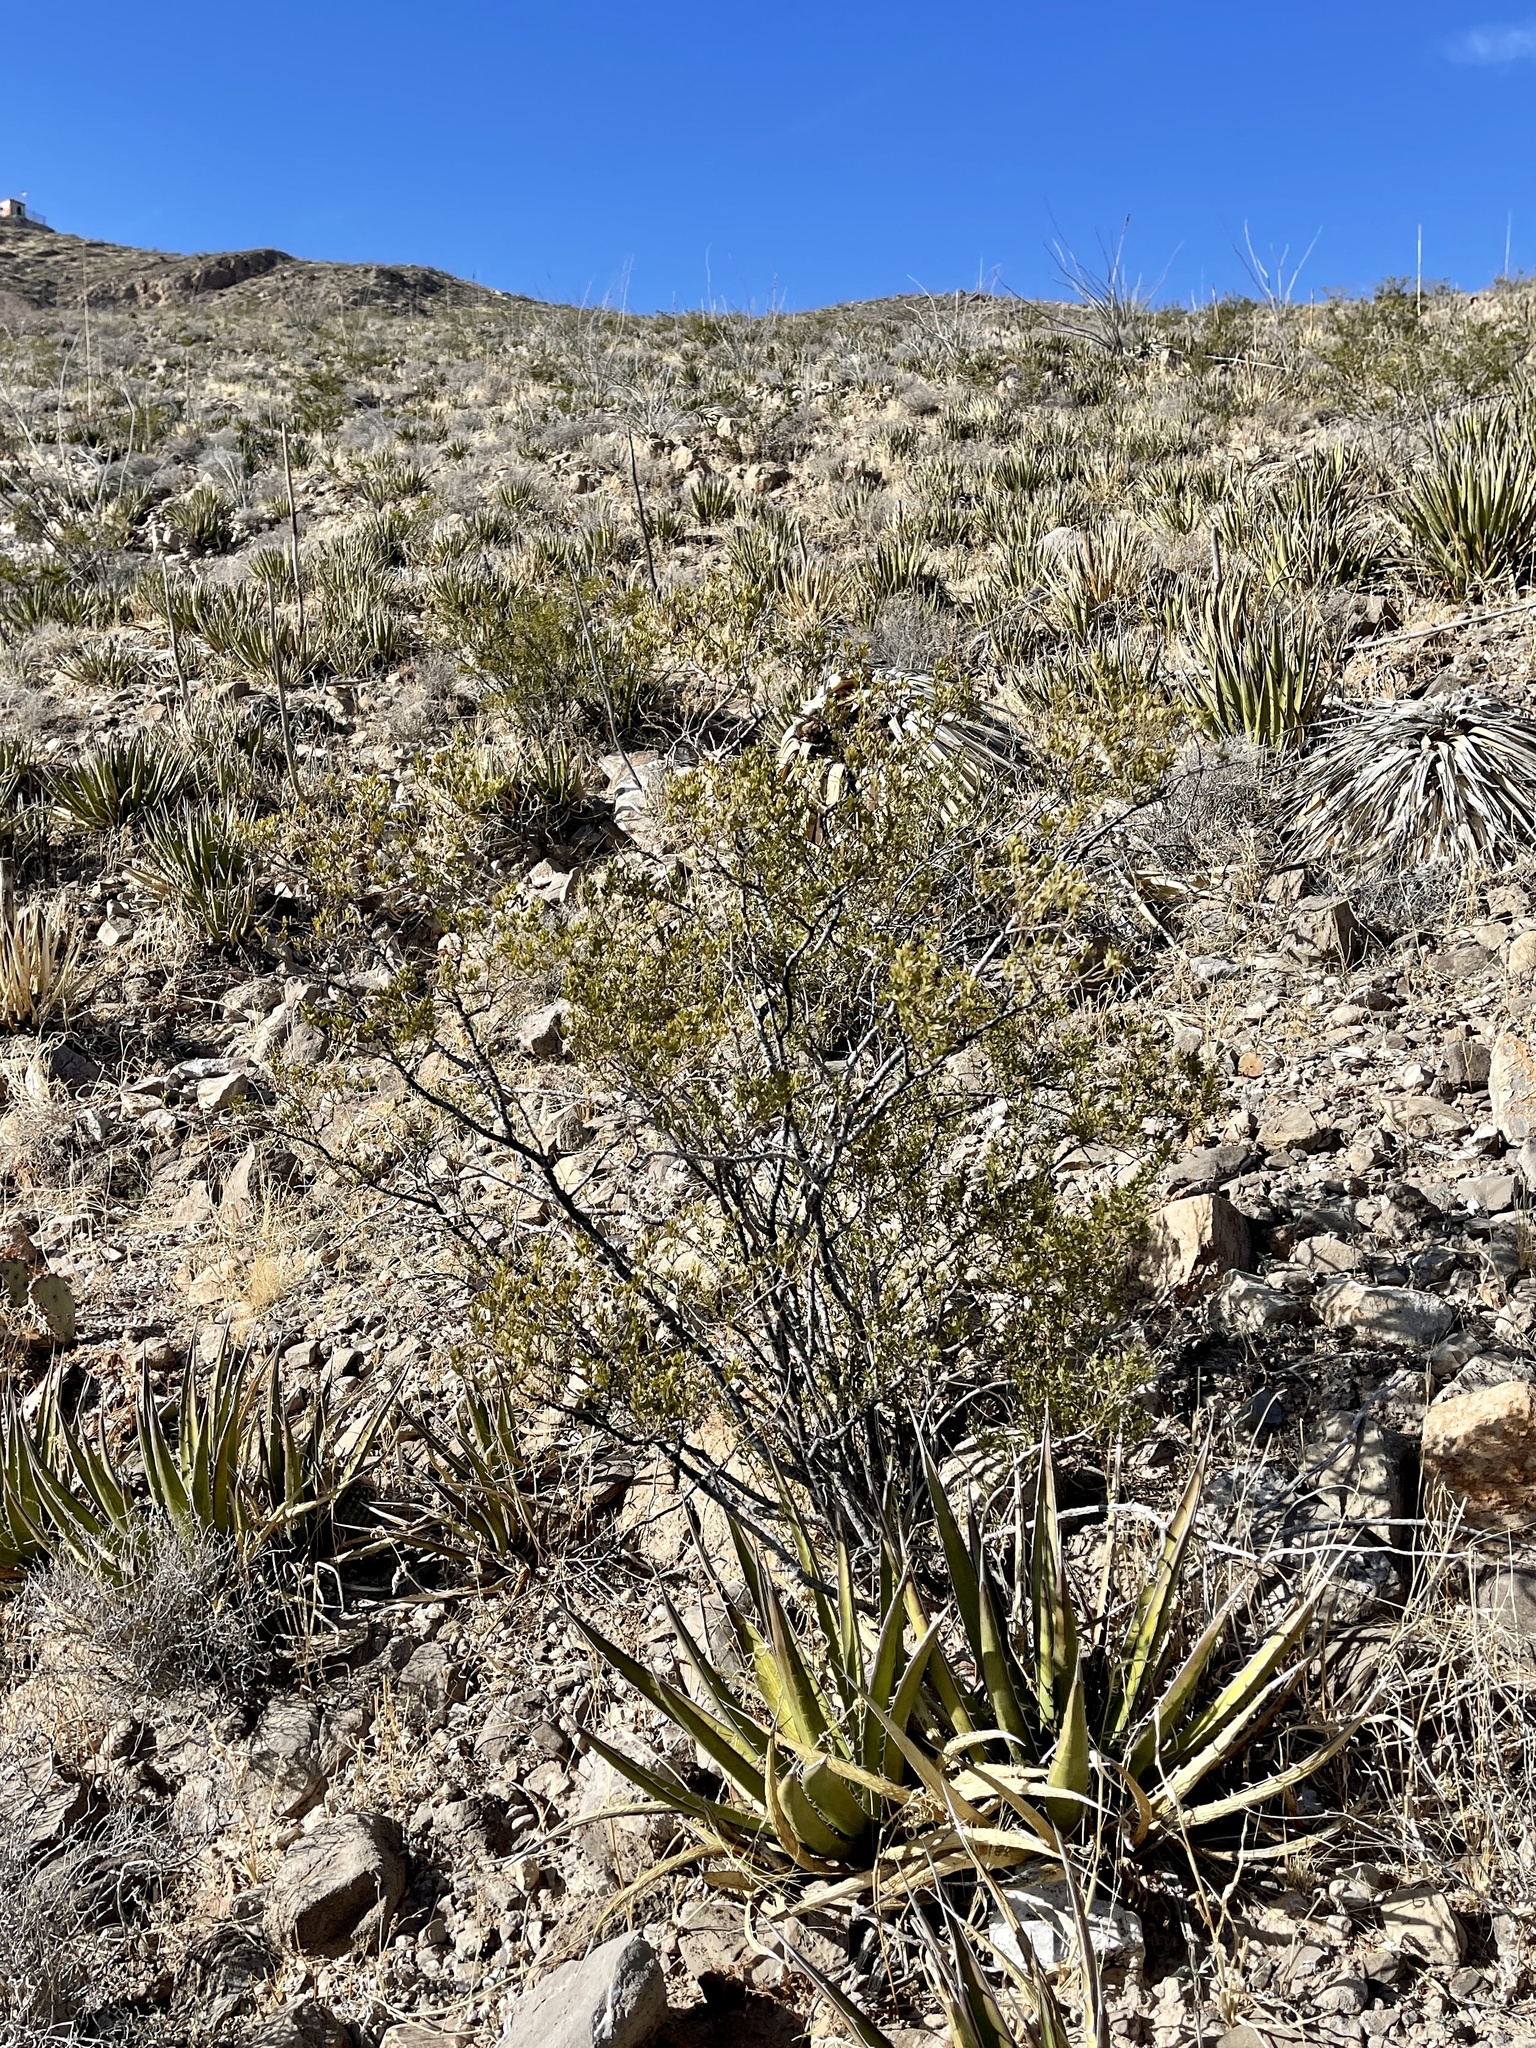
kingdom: Plantae
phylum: Tracheophyta
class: Magnoliopsida
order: Zygophyllales
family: Zygophyllaceae
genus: Larrea
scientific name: Larrea tridentata
